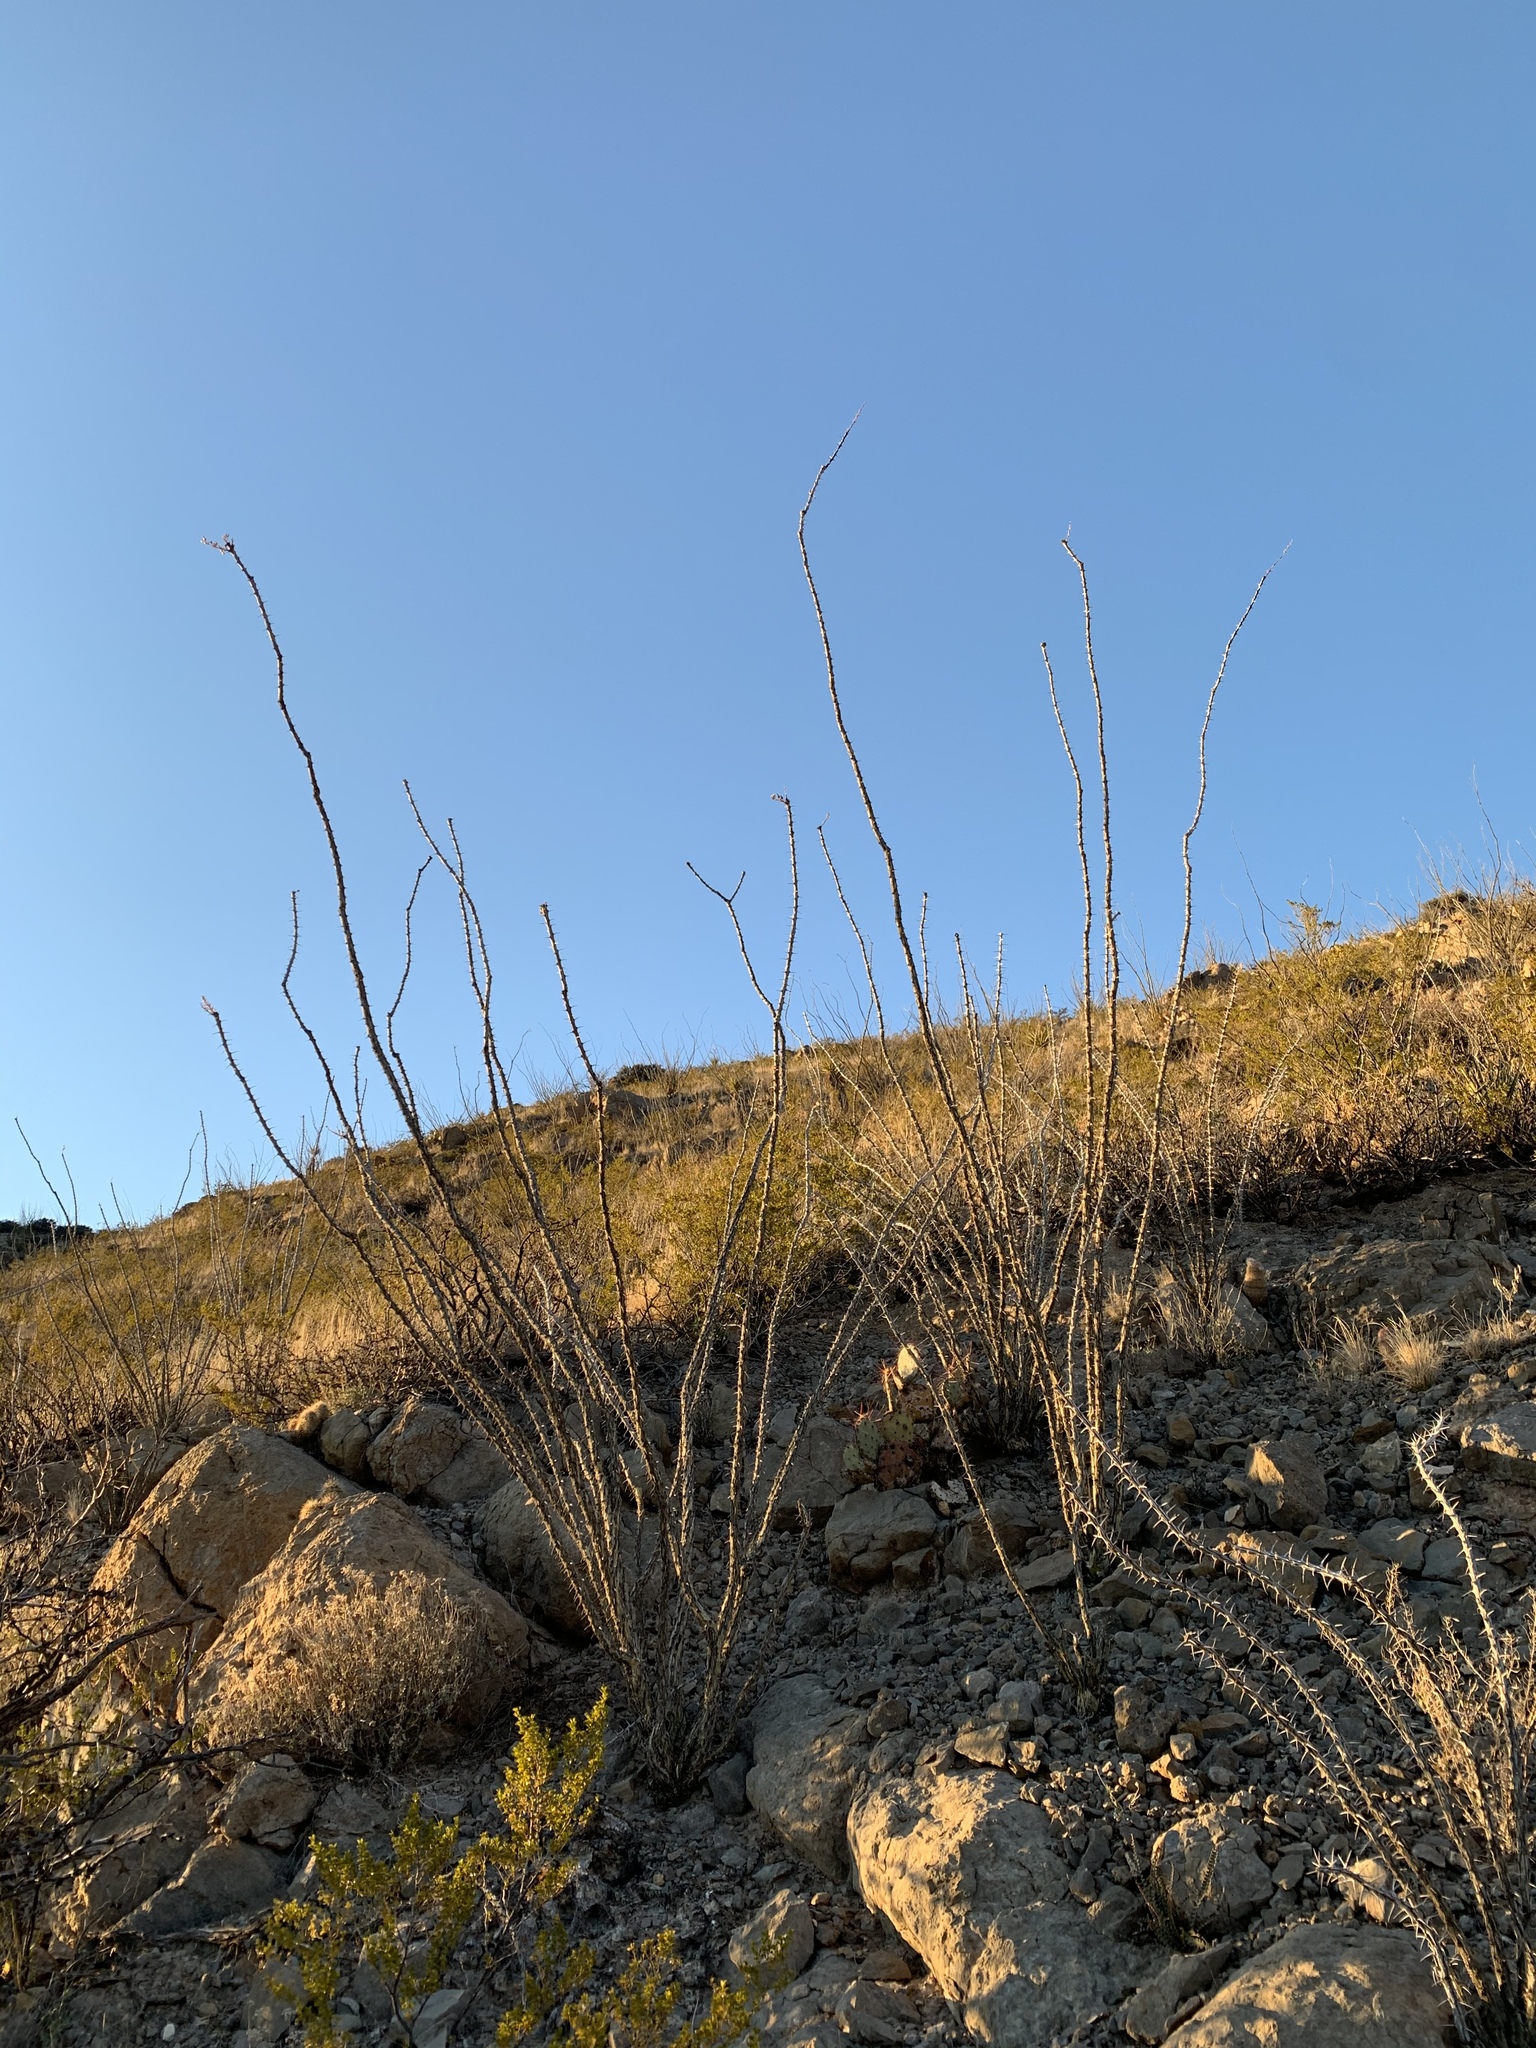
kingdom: Plantae
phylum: Tracheophyta
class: Magnoliopsida
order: Ericales
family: Fouquieriaceae
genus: Fouquieria
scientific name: Fouquieria splendens
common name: Vine-cactus
